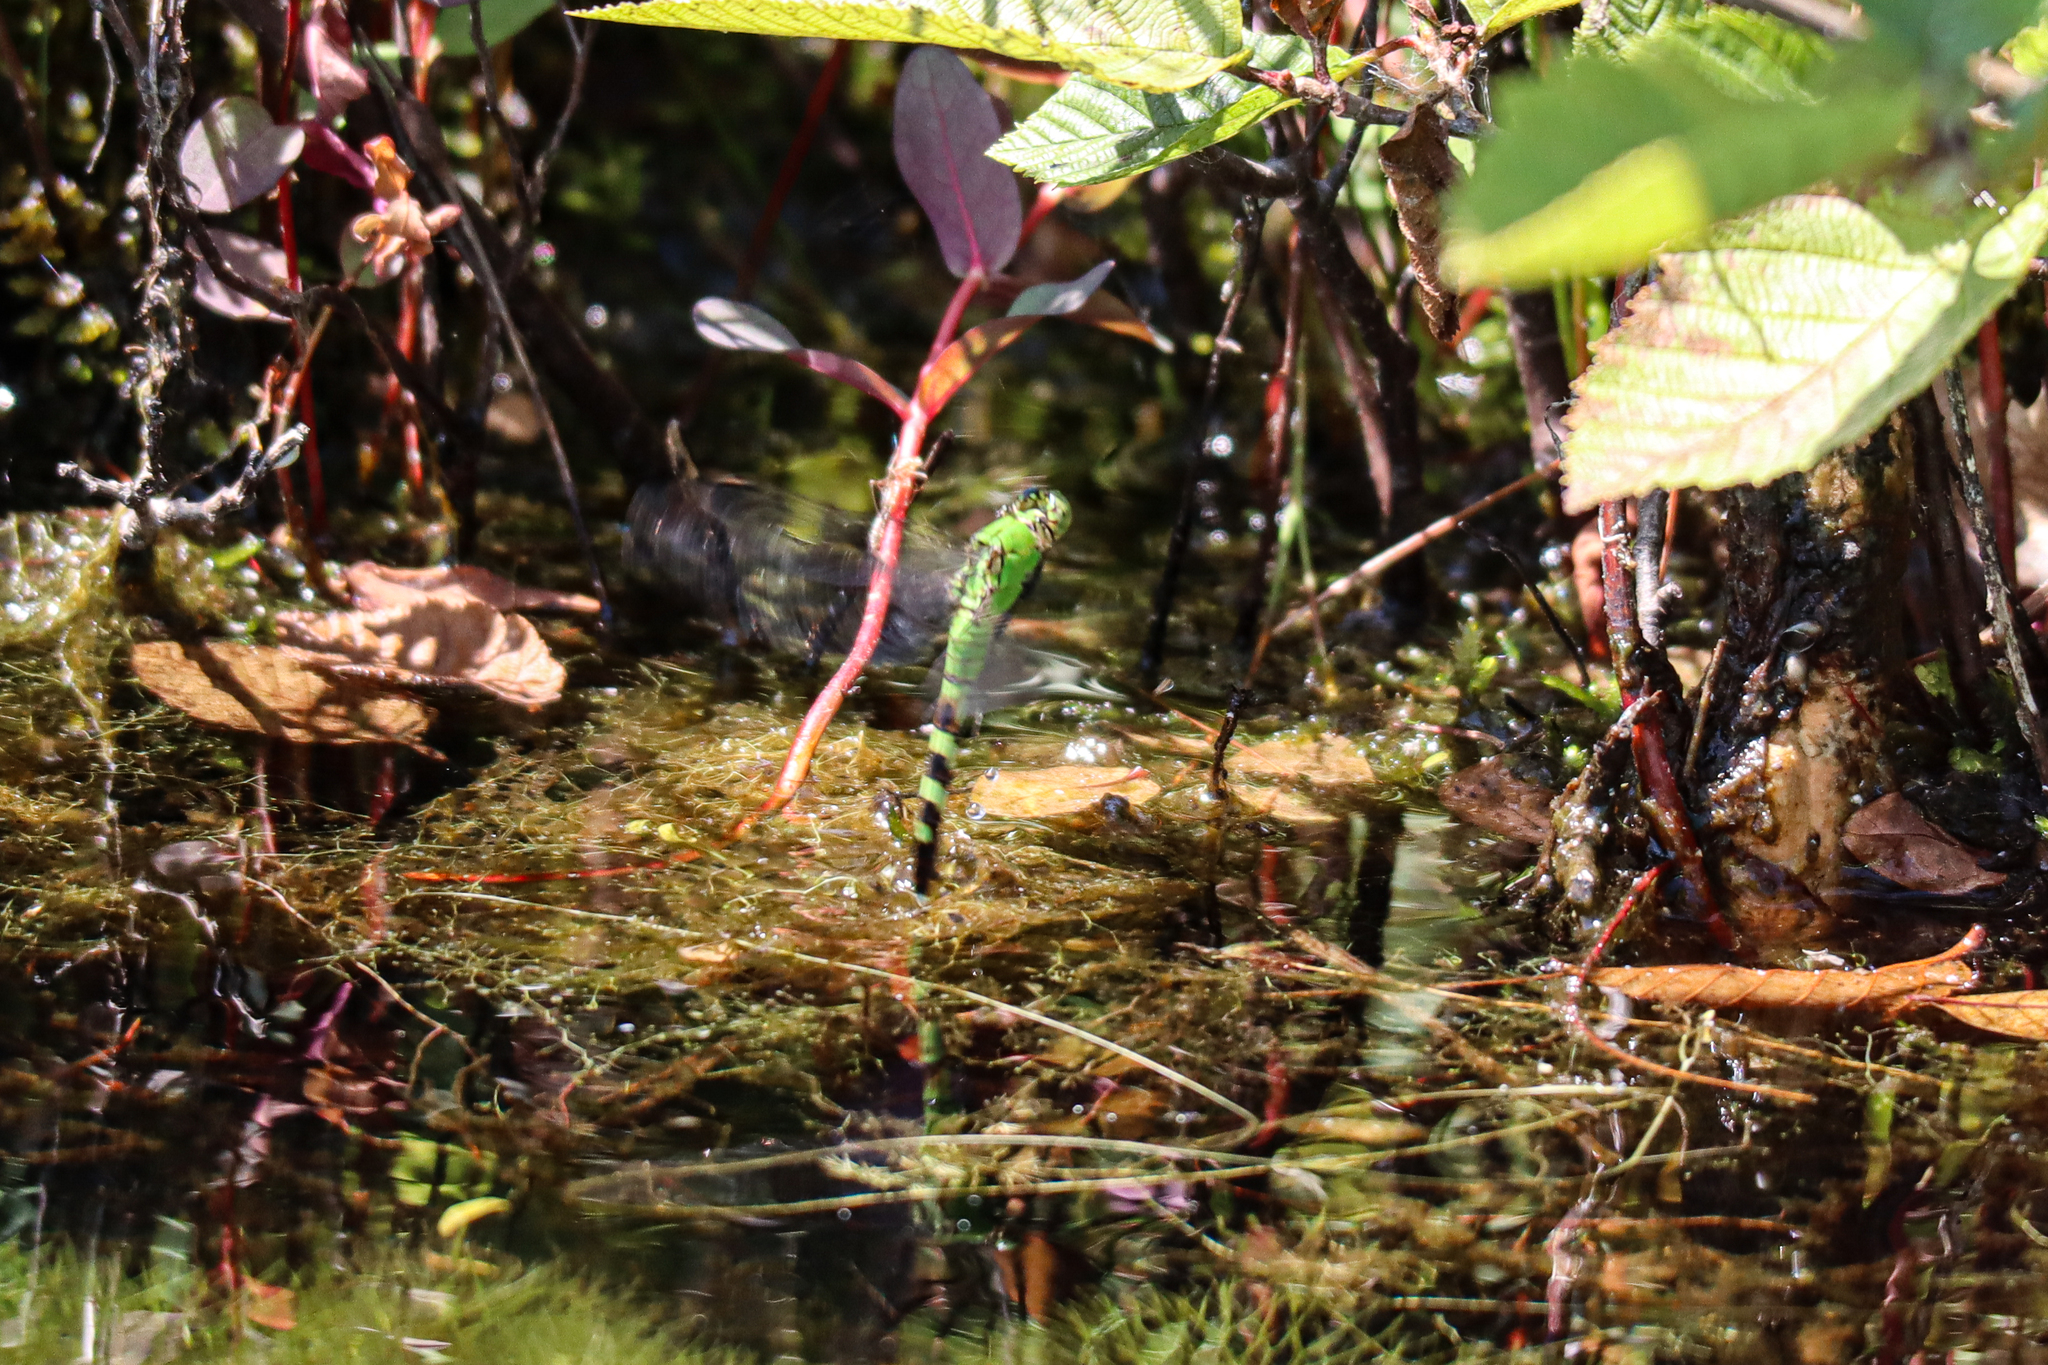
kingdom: Animalia
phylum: Arthropoda
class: Insecta
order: Odonata
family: Libellulidae
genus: Erythemis
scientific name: Erythemis simplicicollis
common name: Eastern pondhawk
